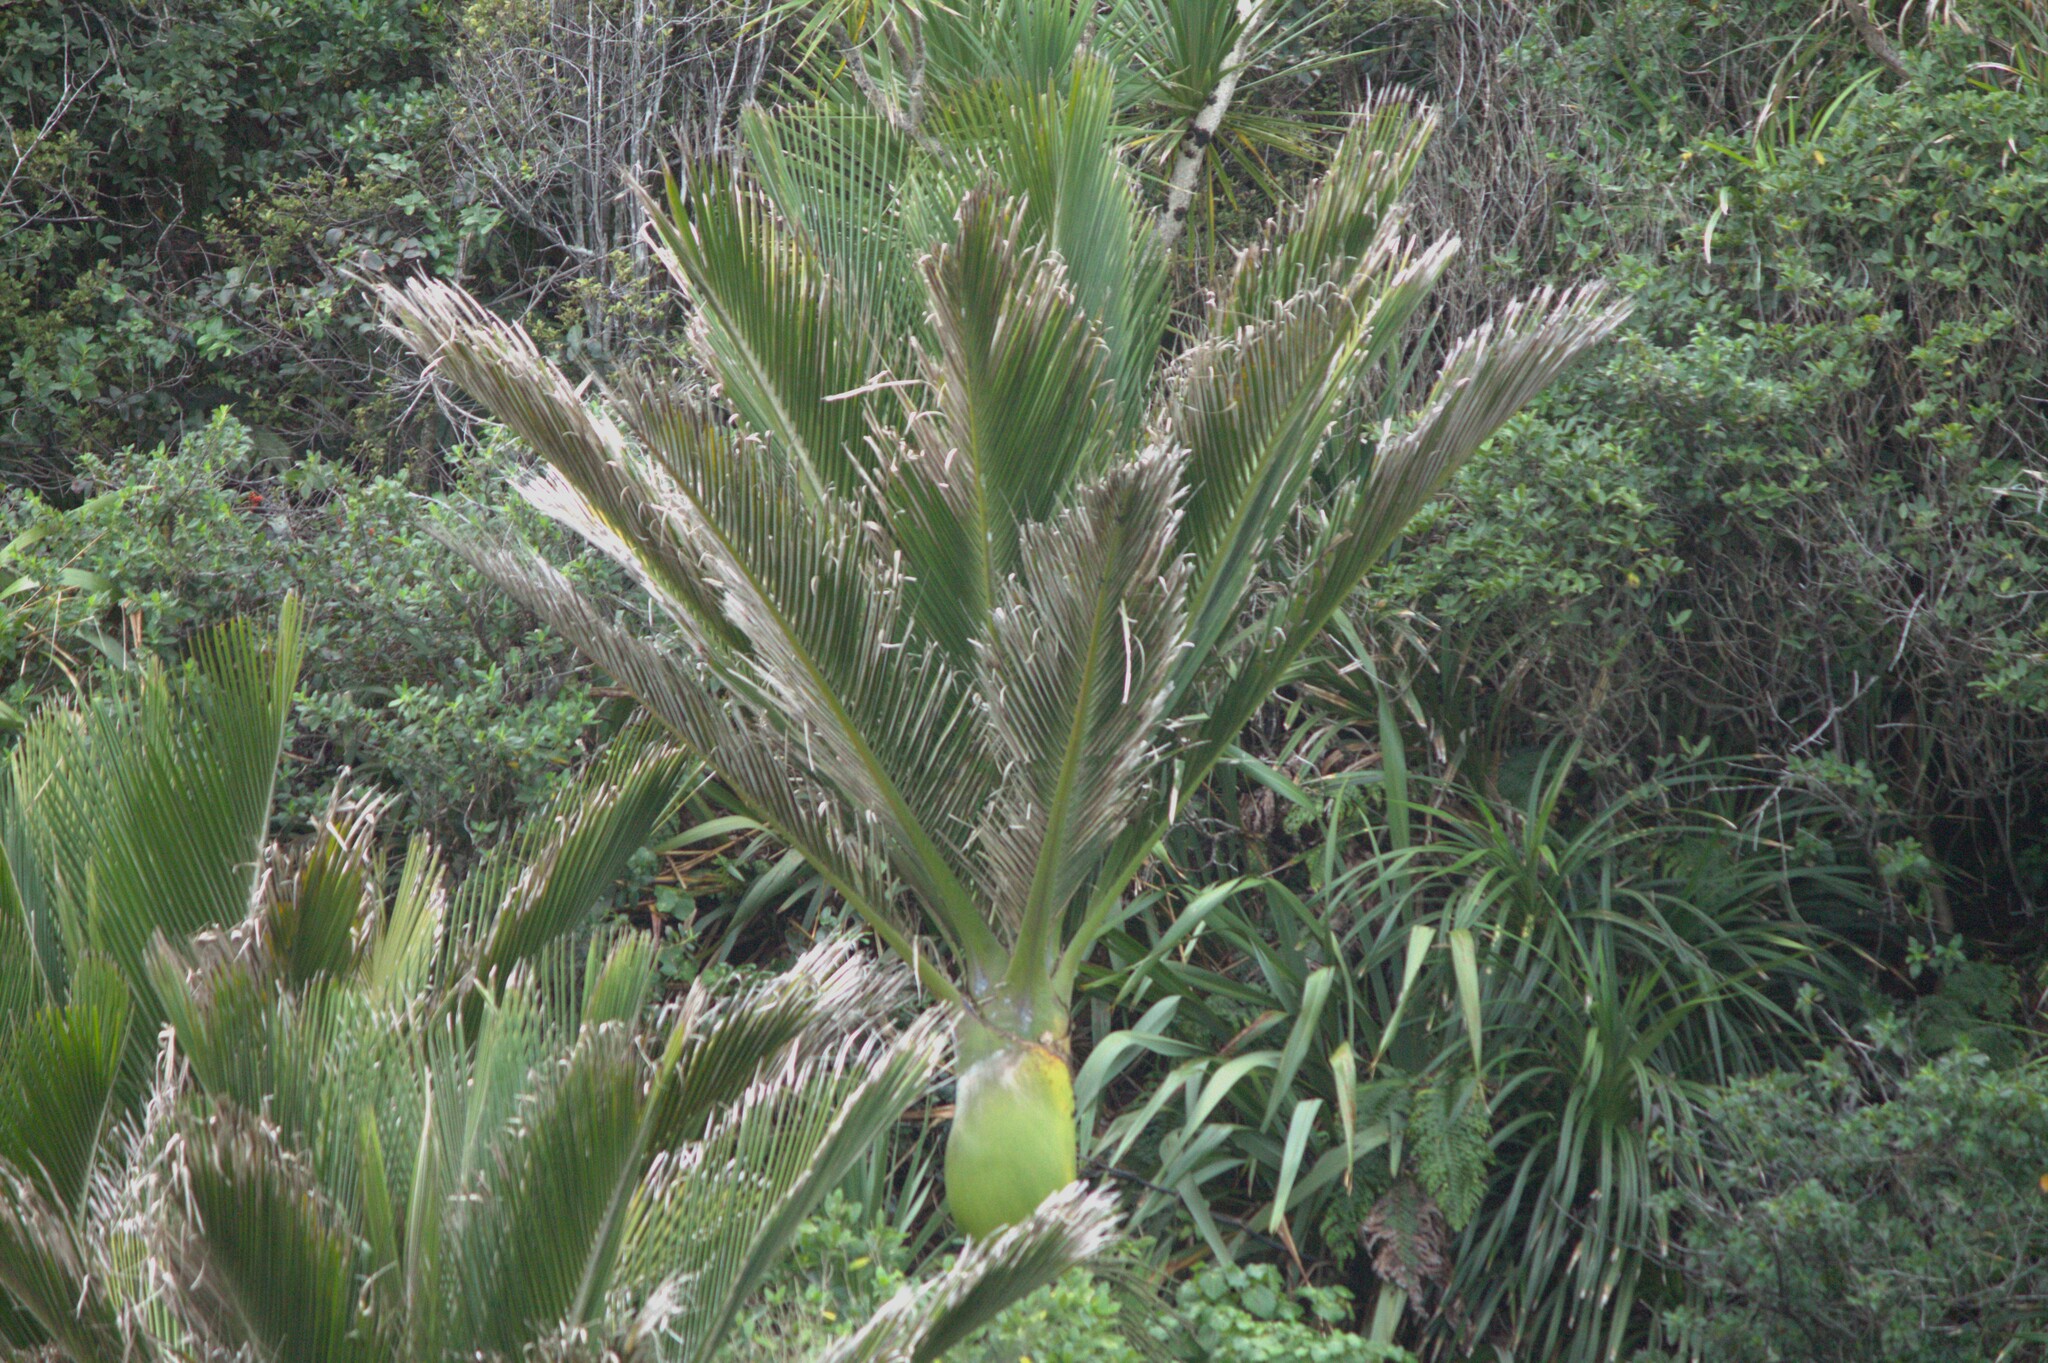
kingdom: Plantae
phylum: Tracheophyta
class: Liliopsida
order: Arecales
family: Arecaceae
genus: Rhopalostylis
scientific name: Rhopalostylis sapida
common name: Feather-duster palm
